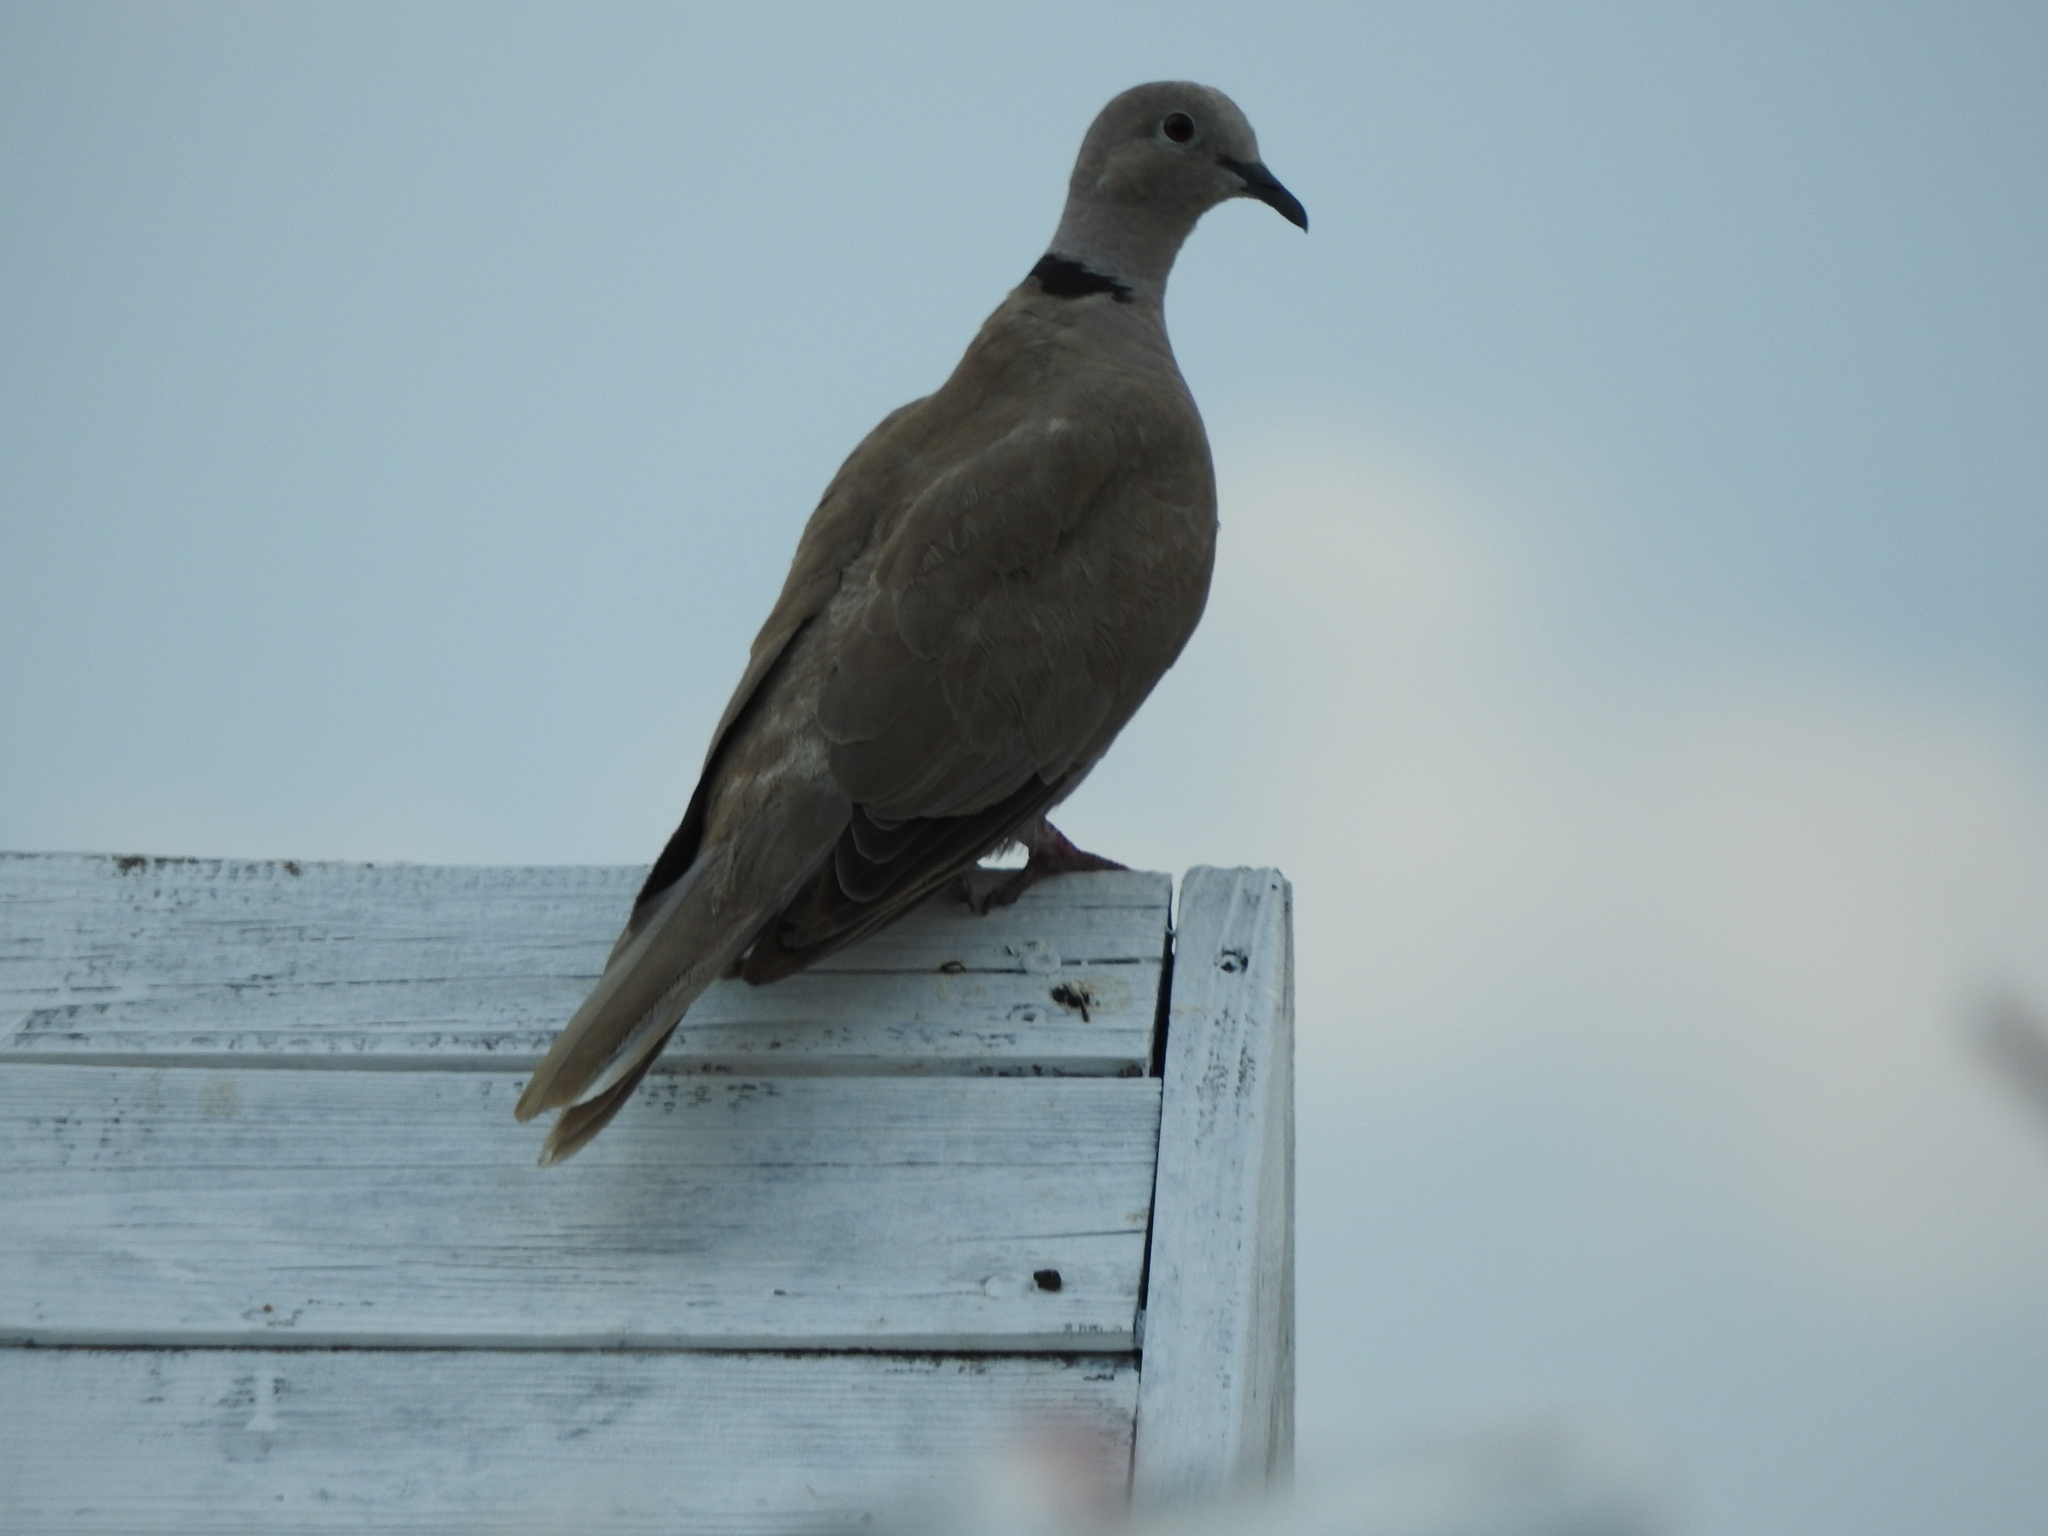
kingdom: Animalia
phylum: Chordata
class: Aves
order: Columbiformes
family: Columbidae
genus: Streptopelia
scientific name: Streptopelia decaocto
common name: Eurasian collared dove
